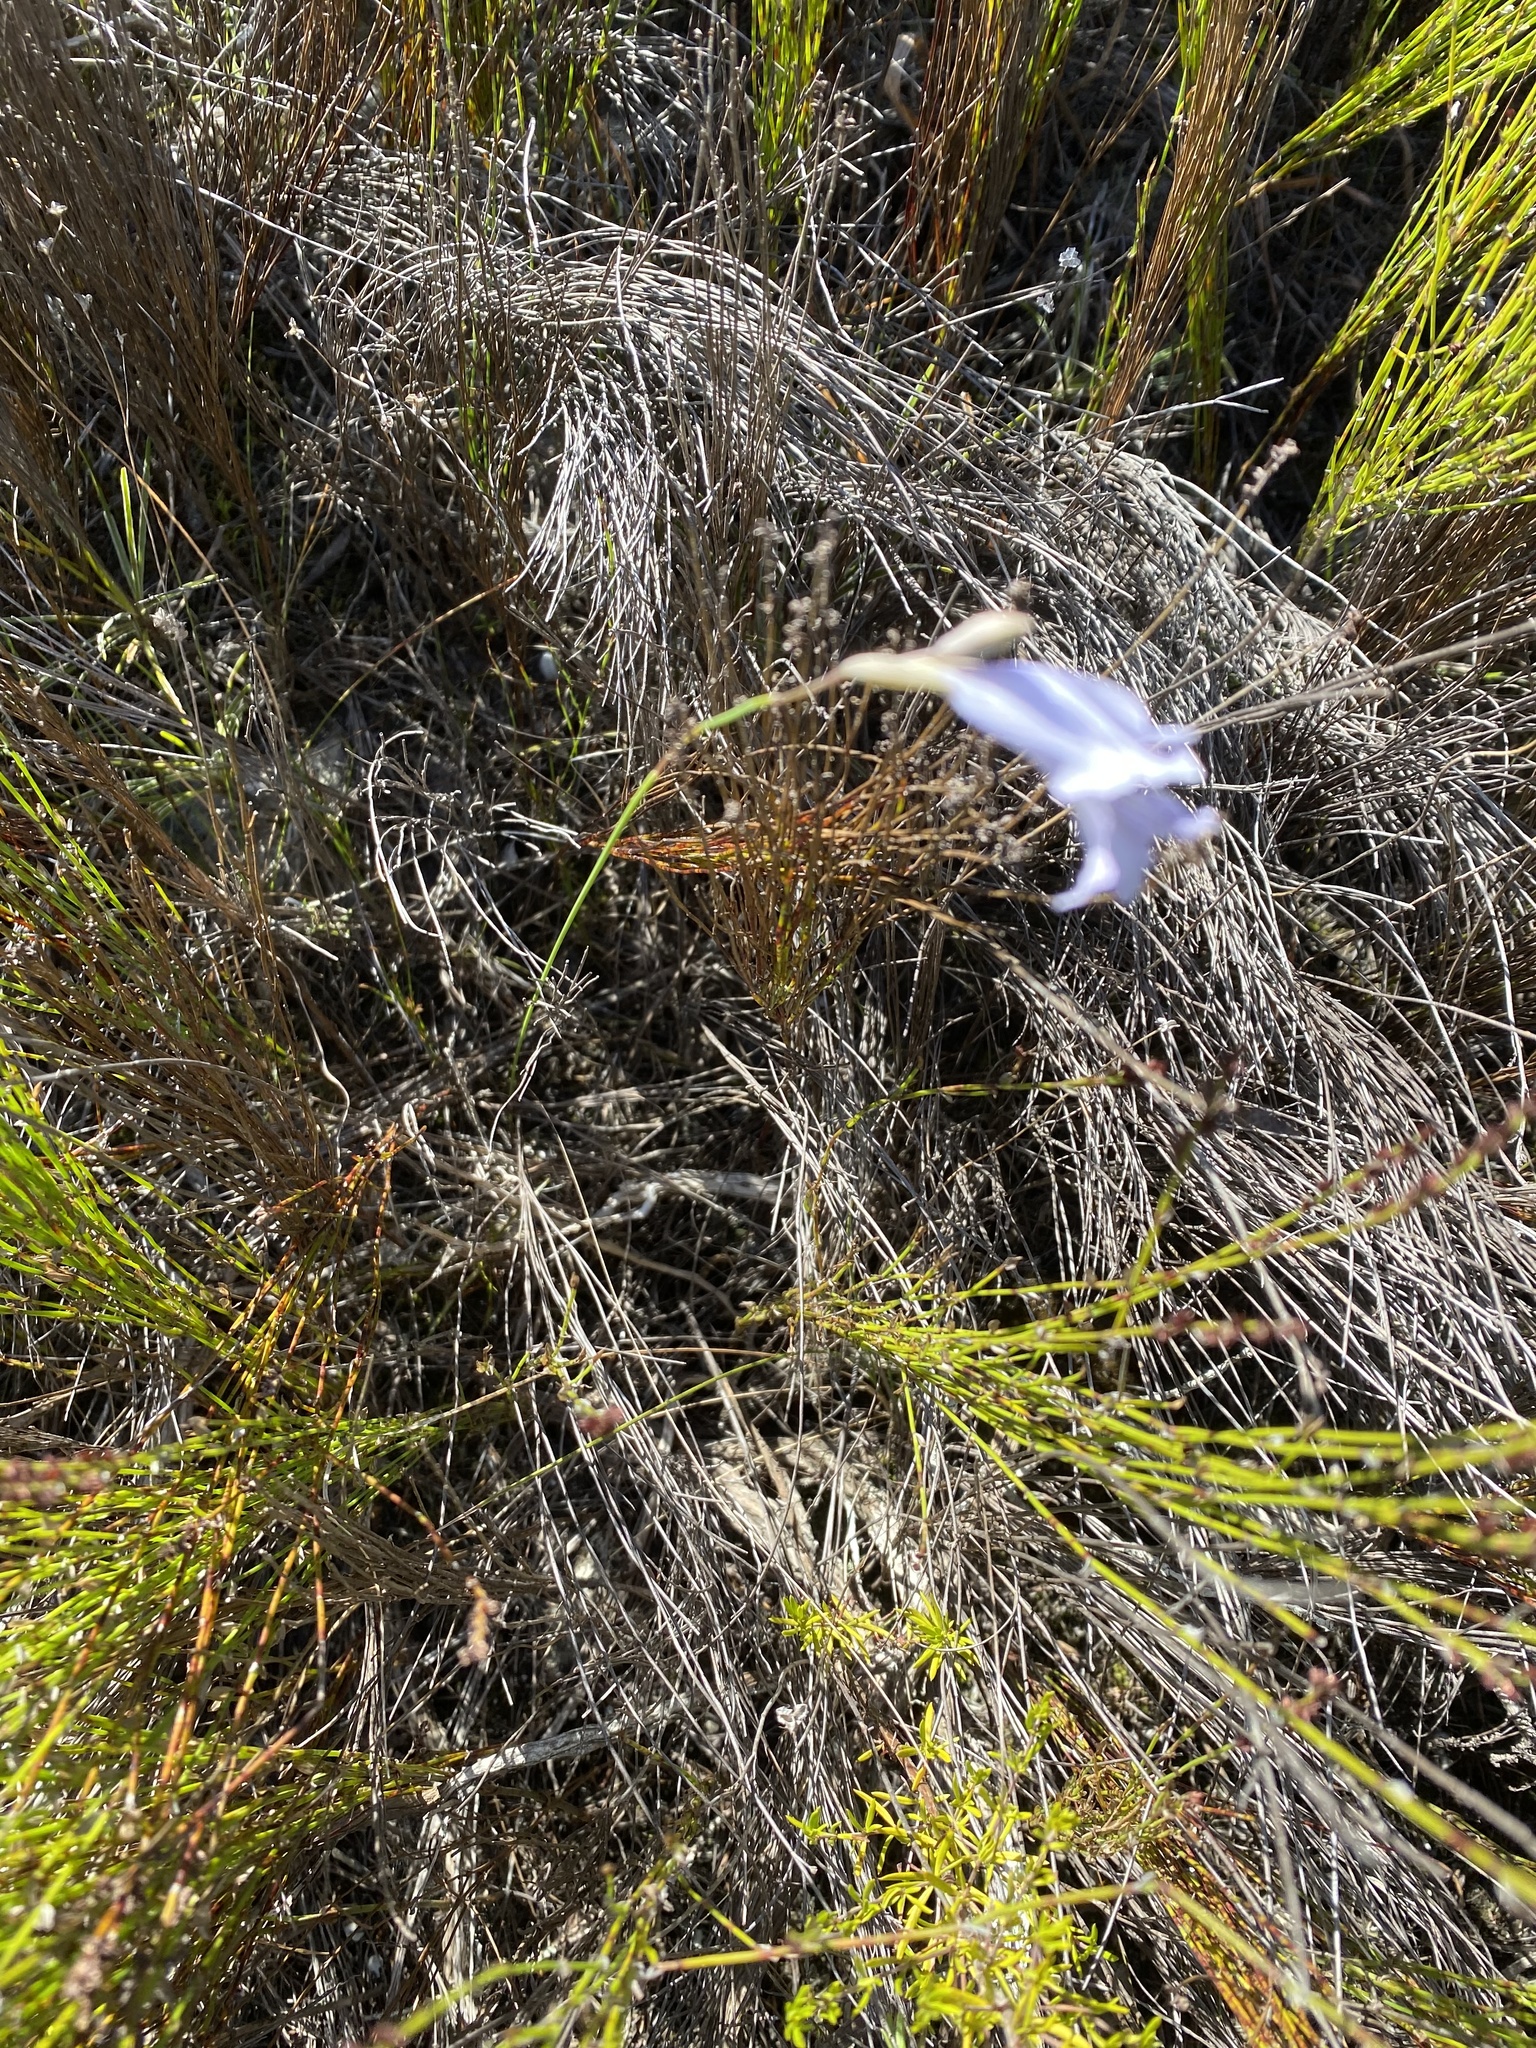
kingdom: Plantae
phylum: Tracheophyta
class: Liliopsida
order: Asparagales
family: Iridaceae
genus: Gladiolus
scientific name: Gladiolus vaginatus
